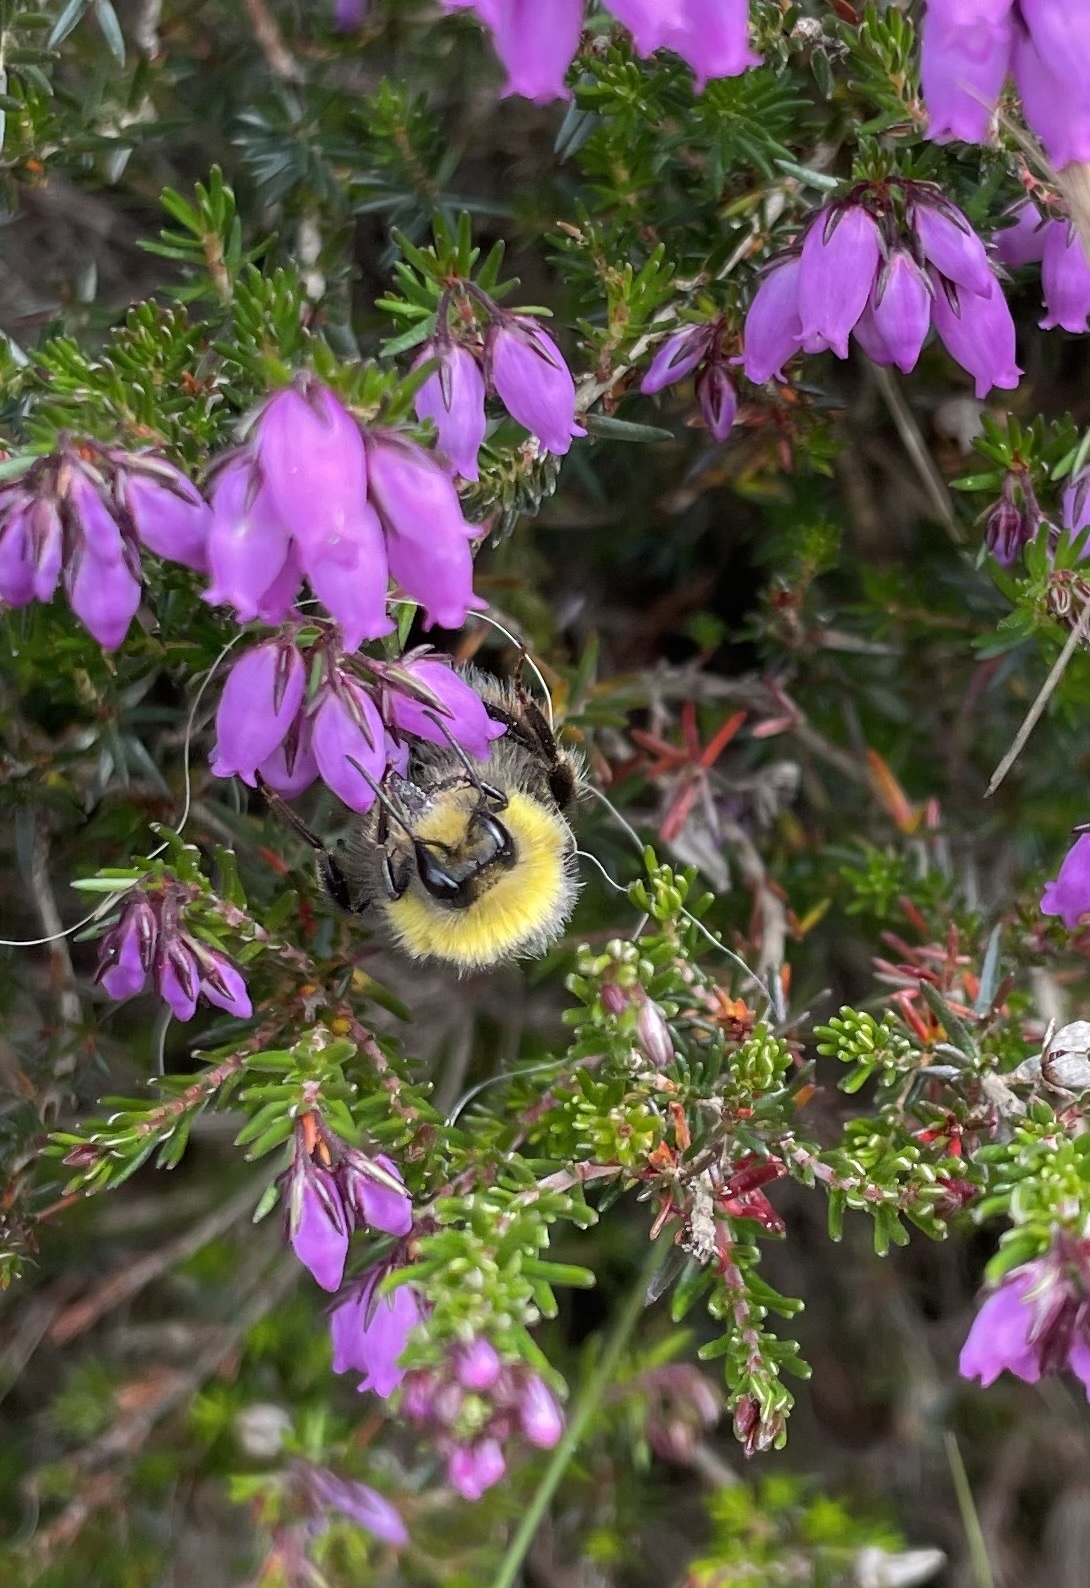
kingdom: Animalia
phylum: Arthropoda
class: Insecta
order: Hymenoptera
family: Apidae
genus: Bombus
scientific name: Bombus lucorum
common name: White-tailed bumblebee
